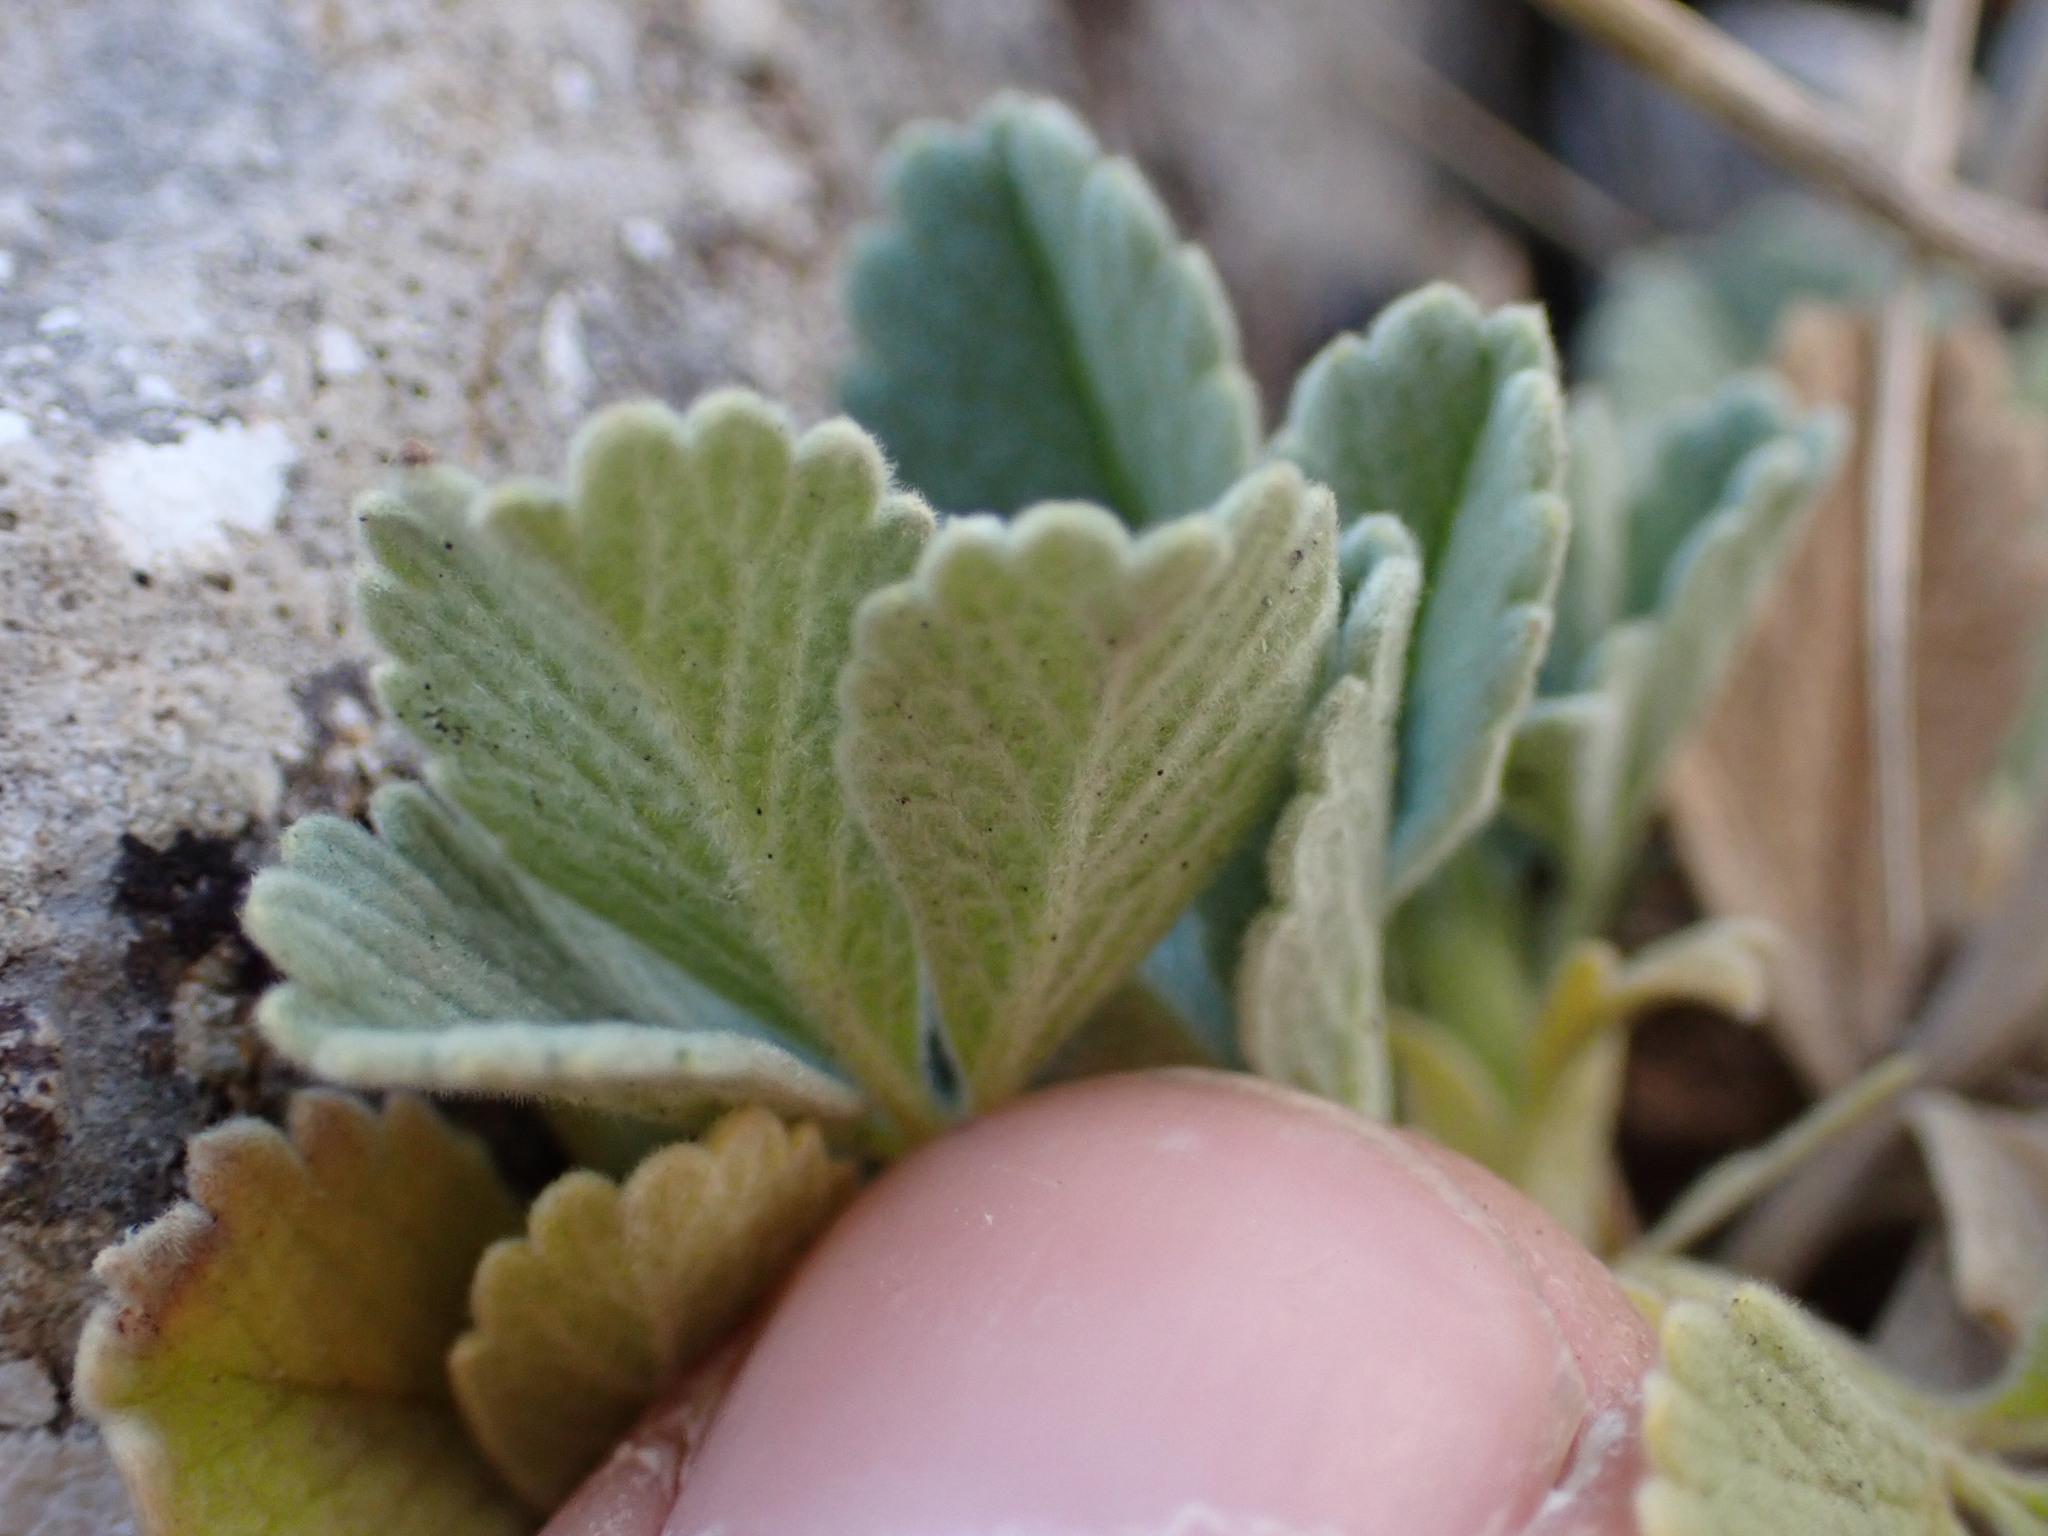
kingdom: Plantae
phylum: Tracheophyta
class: Magnoliopsida
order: Rosales
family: Rosaceae
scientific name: Rosaceae
